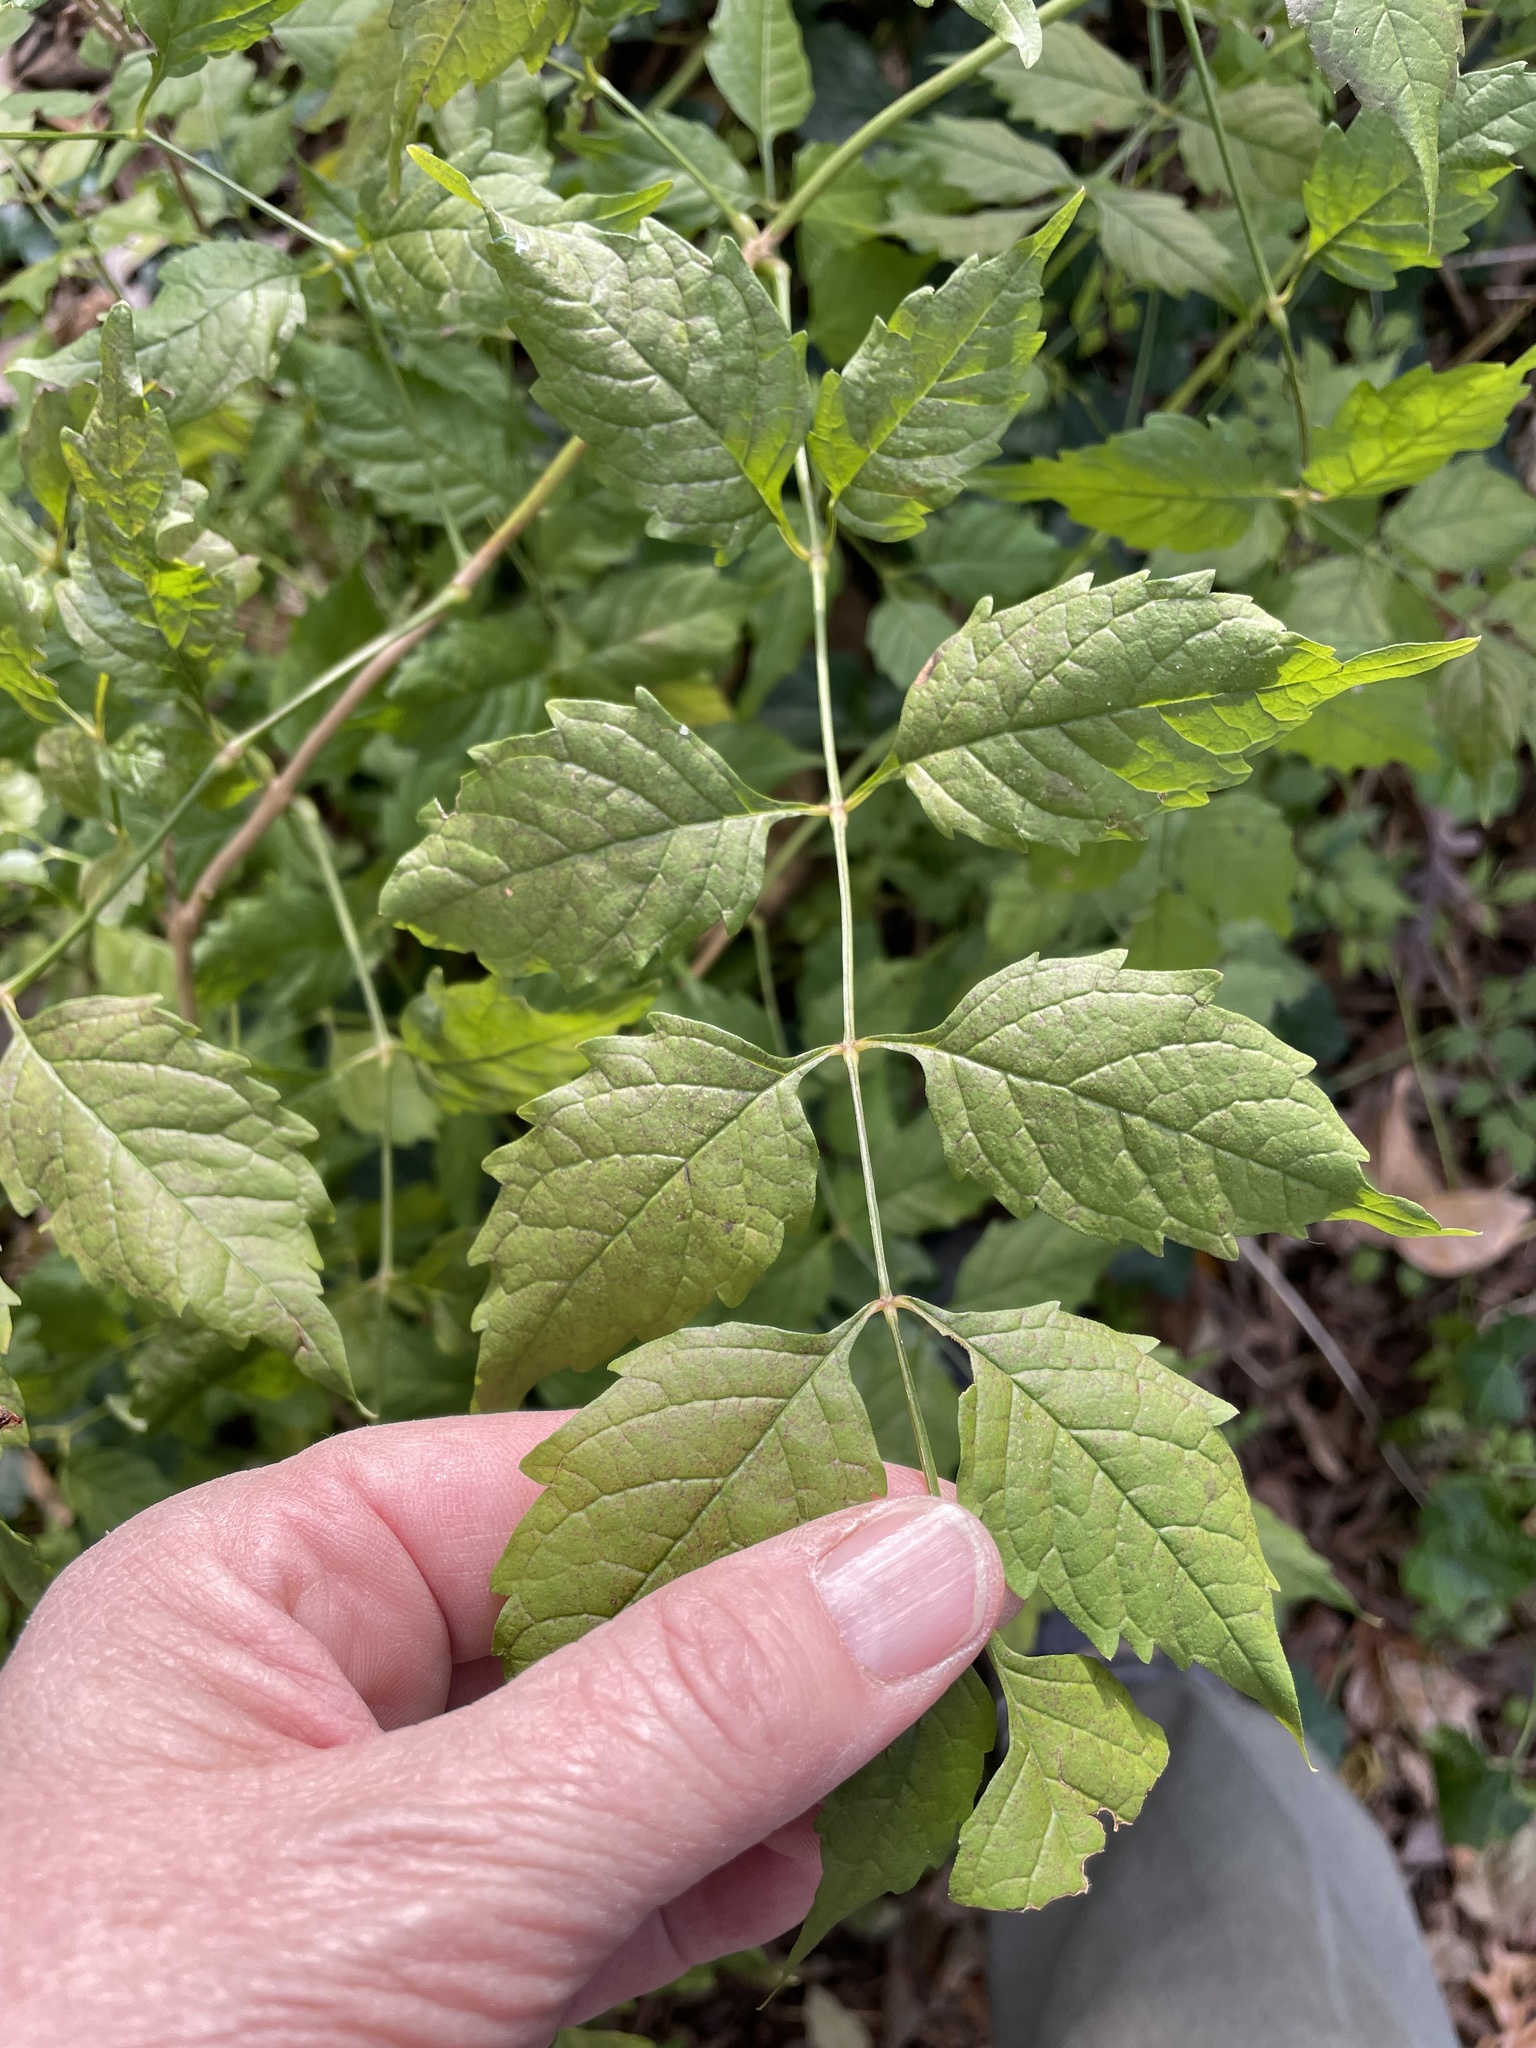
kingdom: Plantae
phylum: Tracheophyta
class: Magnoliopsida
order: Lamiales
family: Bignoniaceae
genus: Campsis
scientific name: Campsis radicans
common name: Trumpet-creeper
